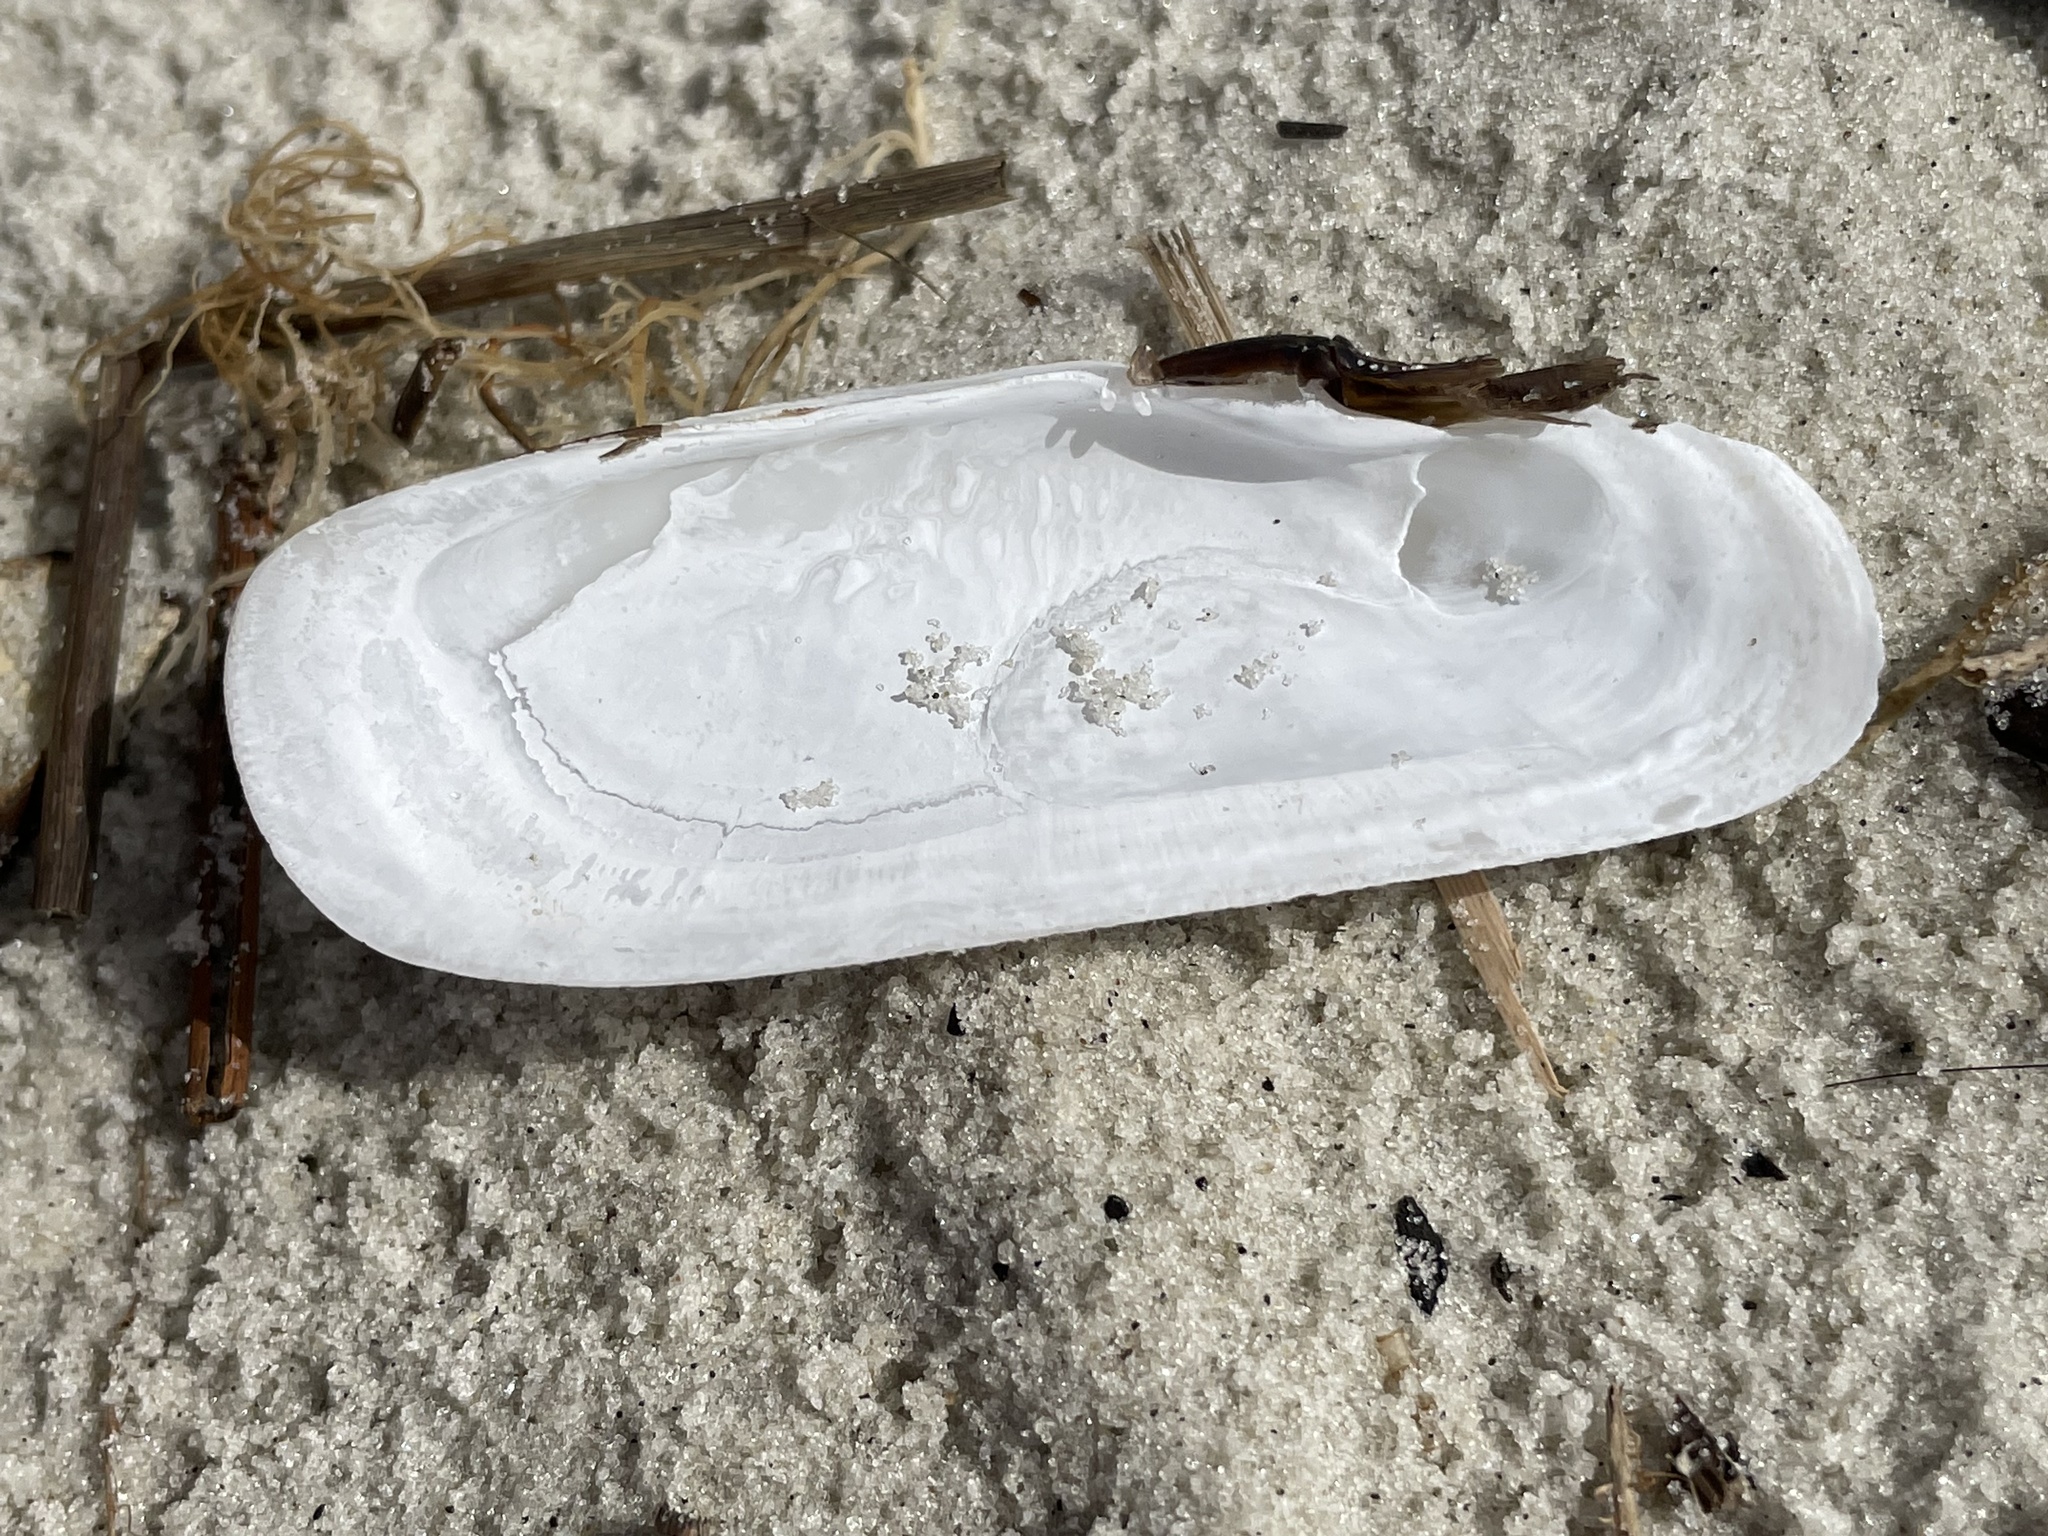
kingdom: Animalia
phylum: Mollusca
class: Bivalvia
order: Cardiida
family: Solecurtidae
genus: Tagelus
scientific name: Tagelus plebeius
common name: Stout tagelus
